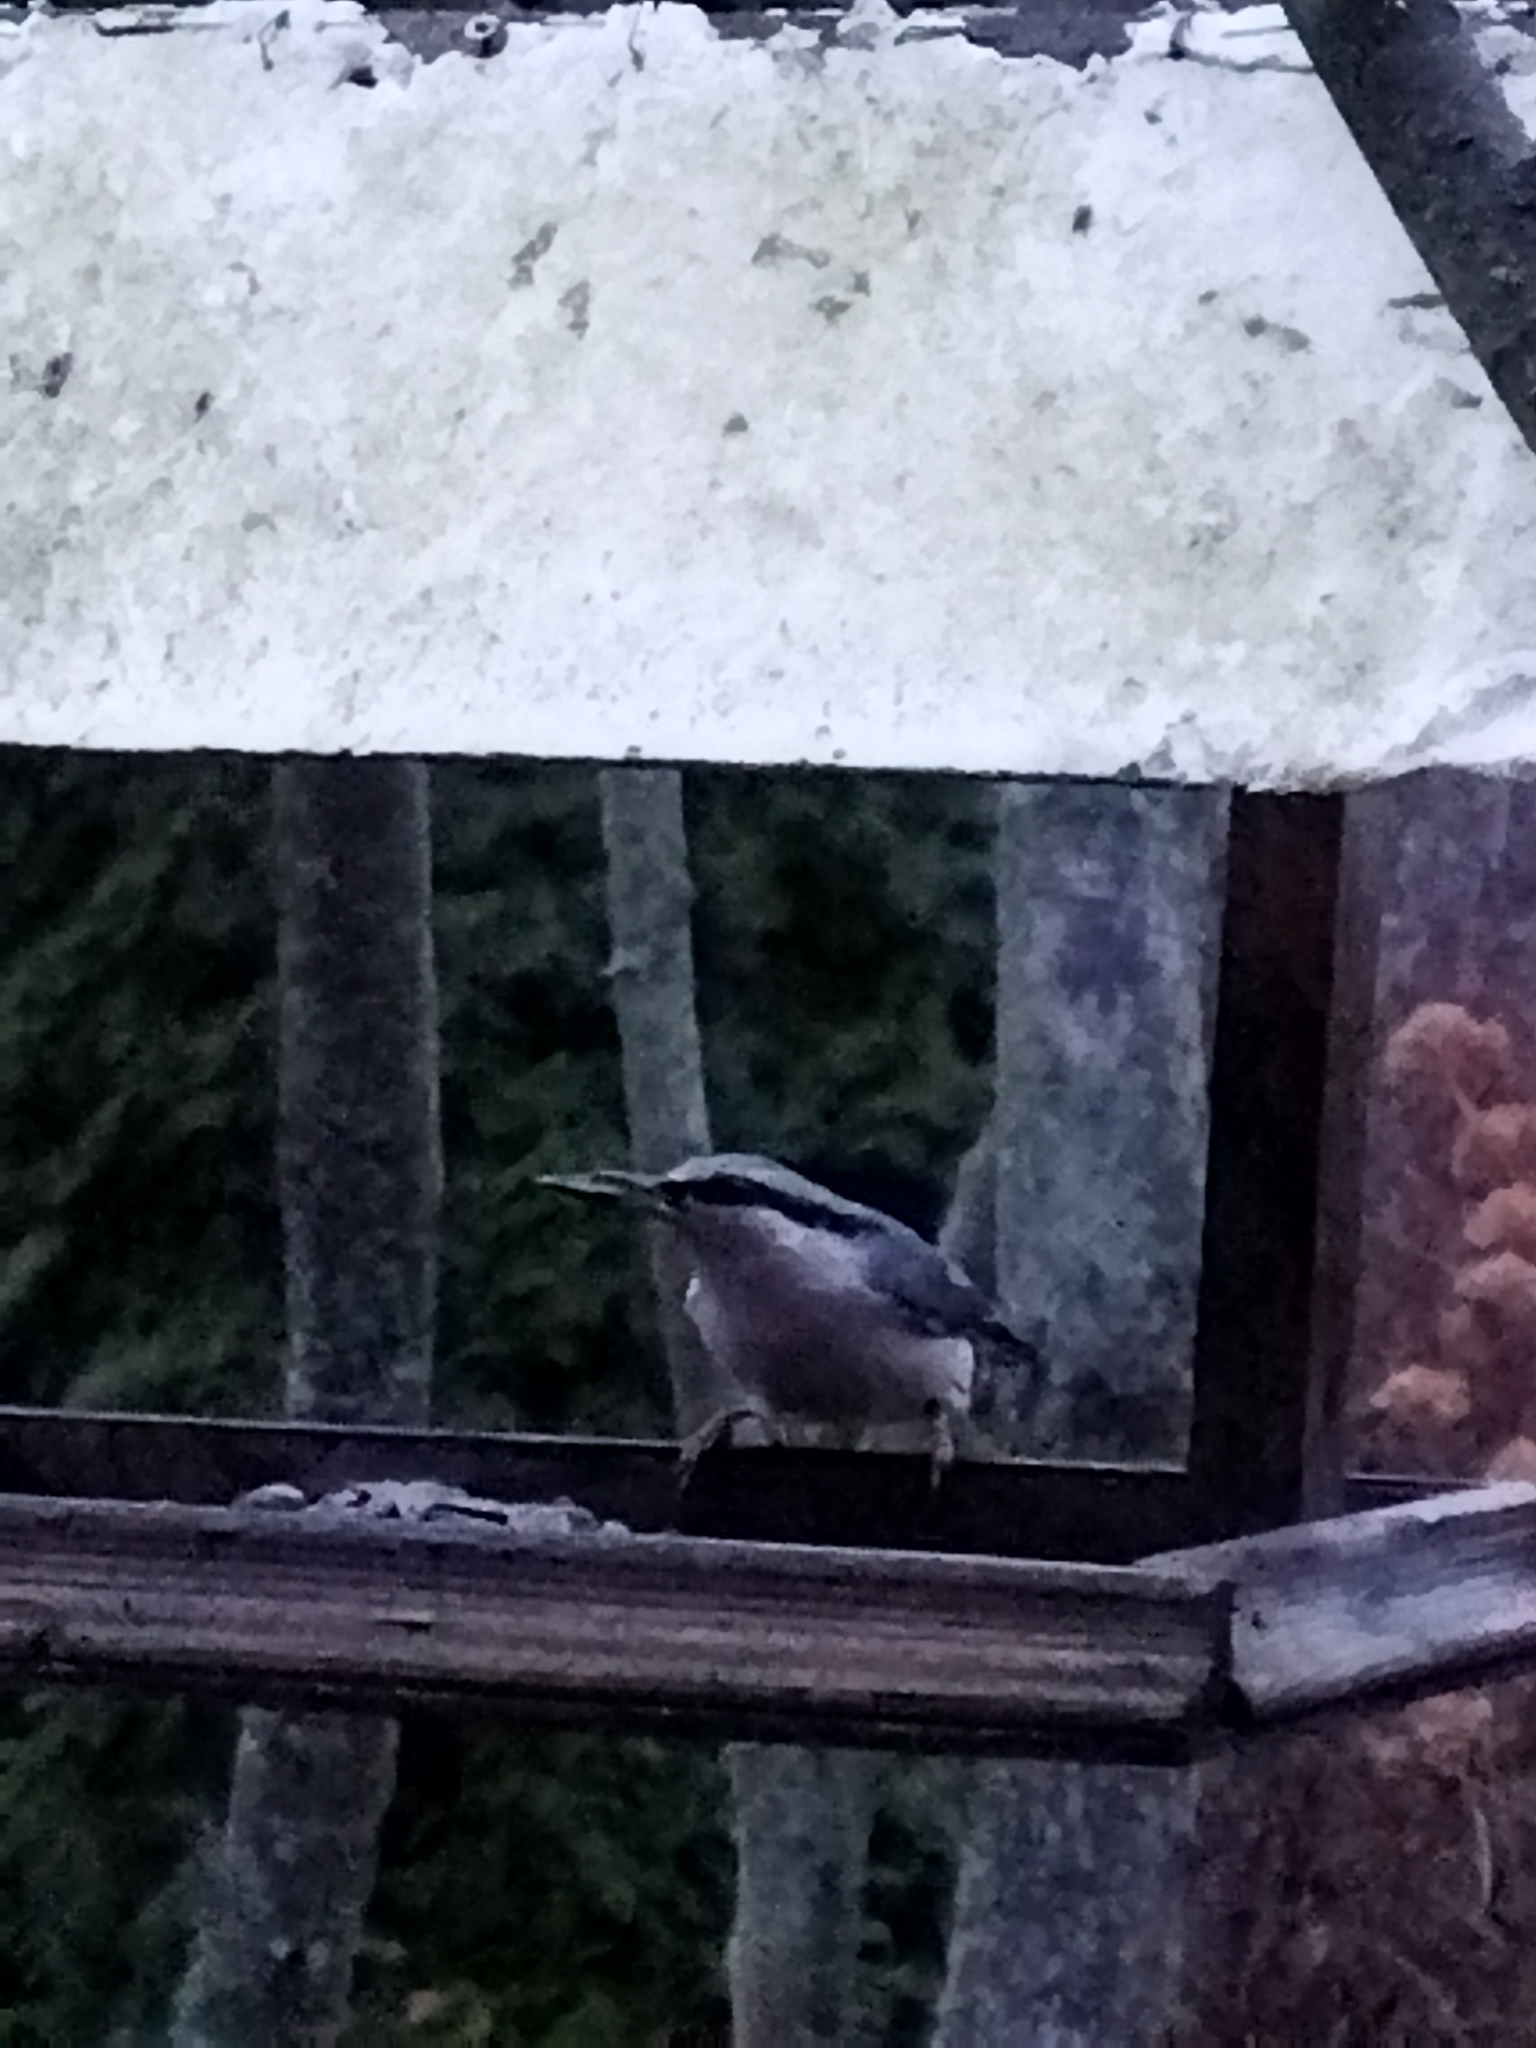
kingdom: Animalia
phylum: Chordata
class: Aves
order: Passeriformes
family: Sittidae
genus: Sitta
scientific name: Sitta europaea
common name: Eurasian nuthatch
